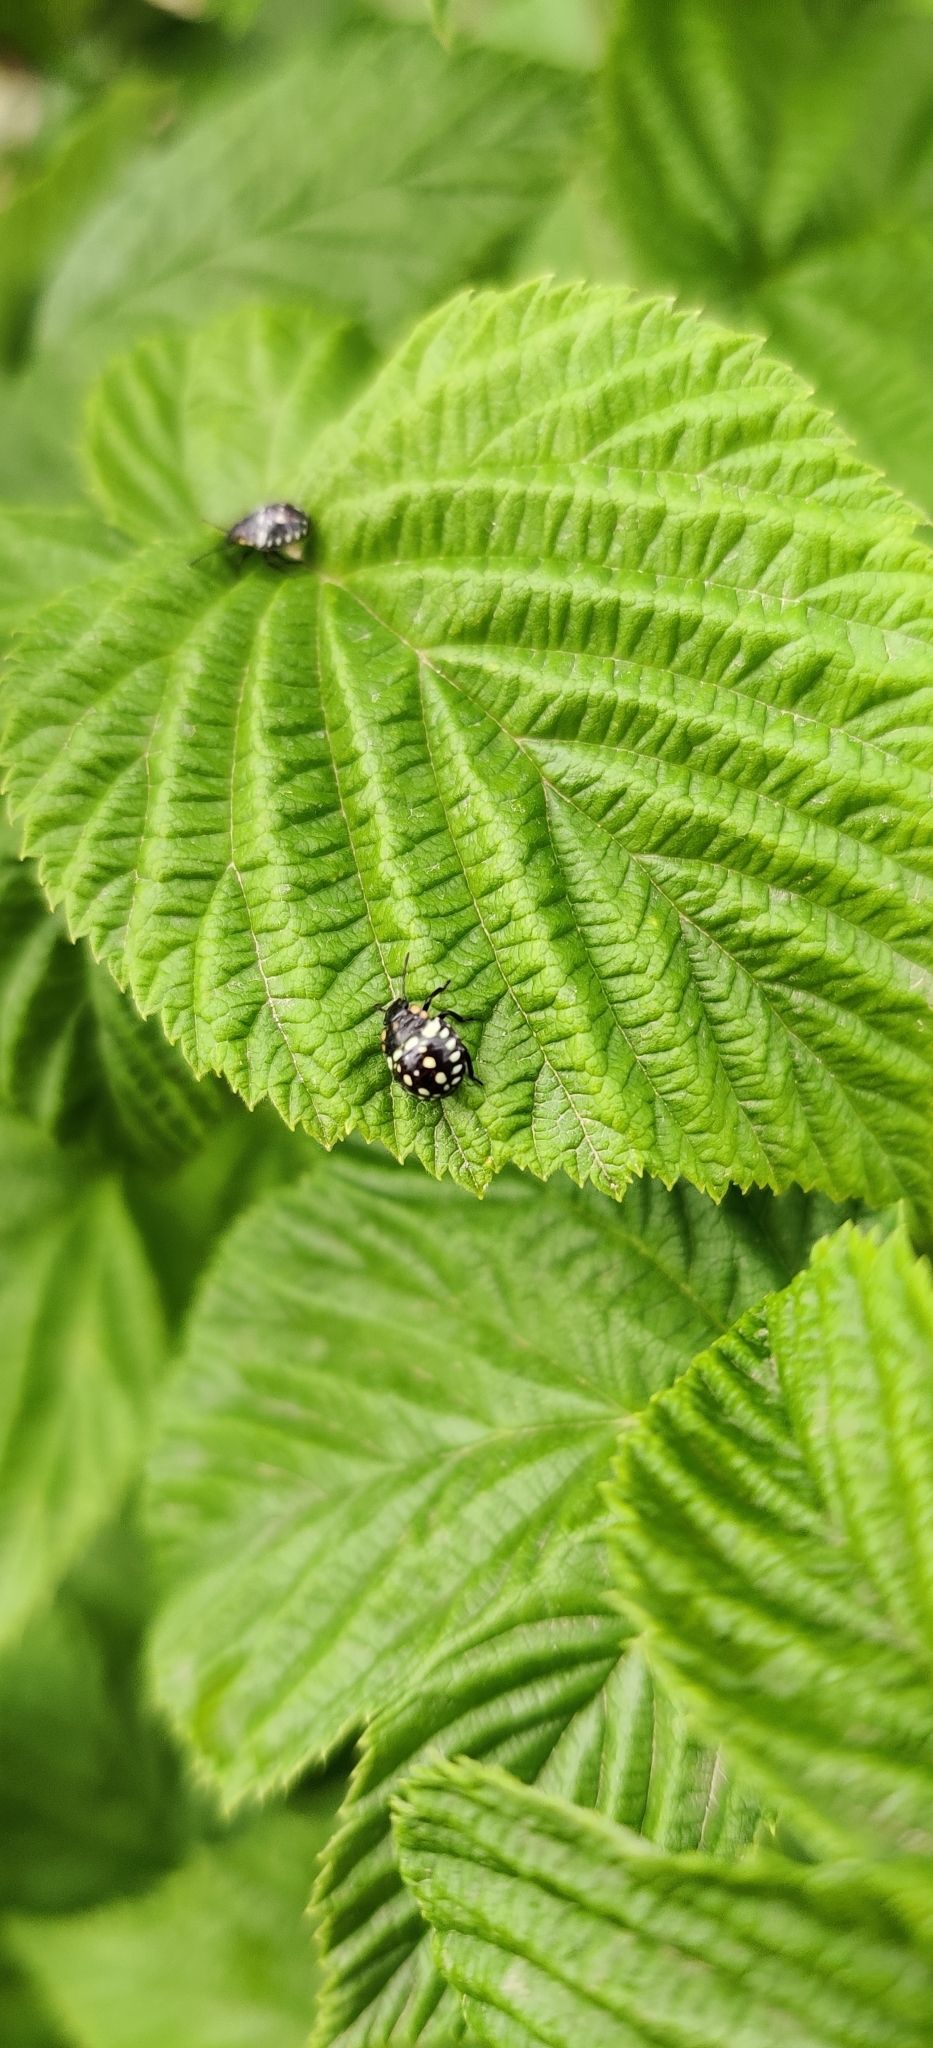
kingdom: Animalia
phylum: Arthropoda
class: Insecta
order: Hemiptera
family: Pentatomidae
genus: Nezara
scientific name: Nezara viridula
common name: Southern green stink bug
